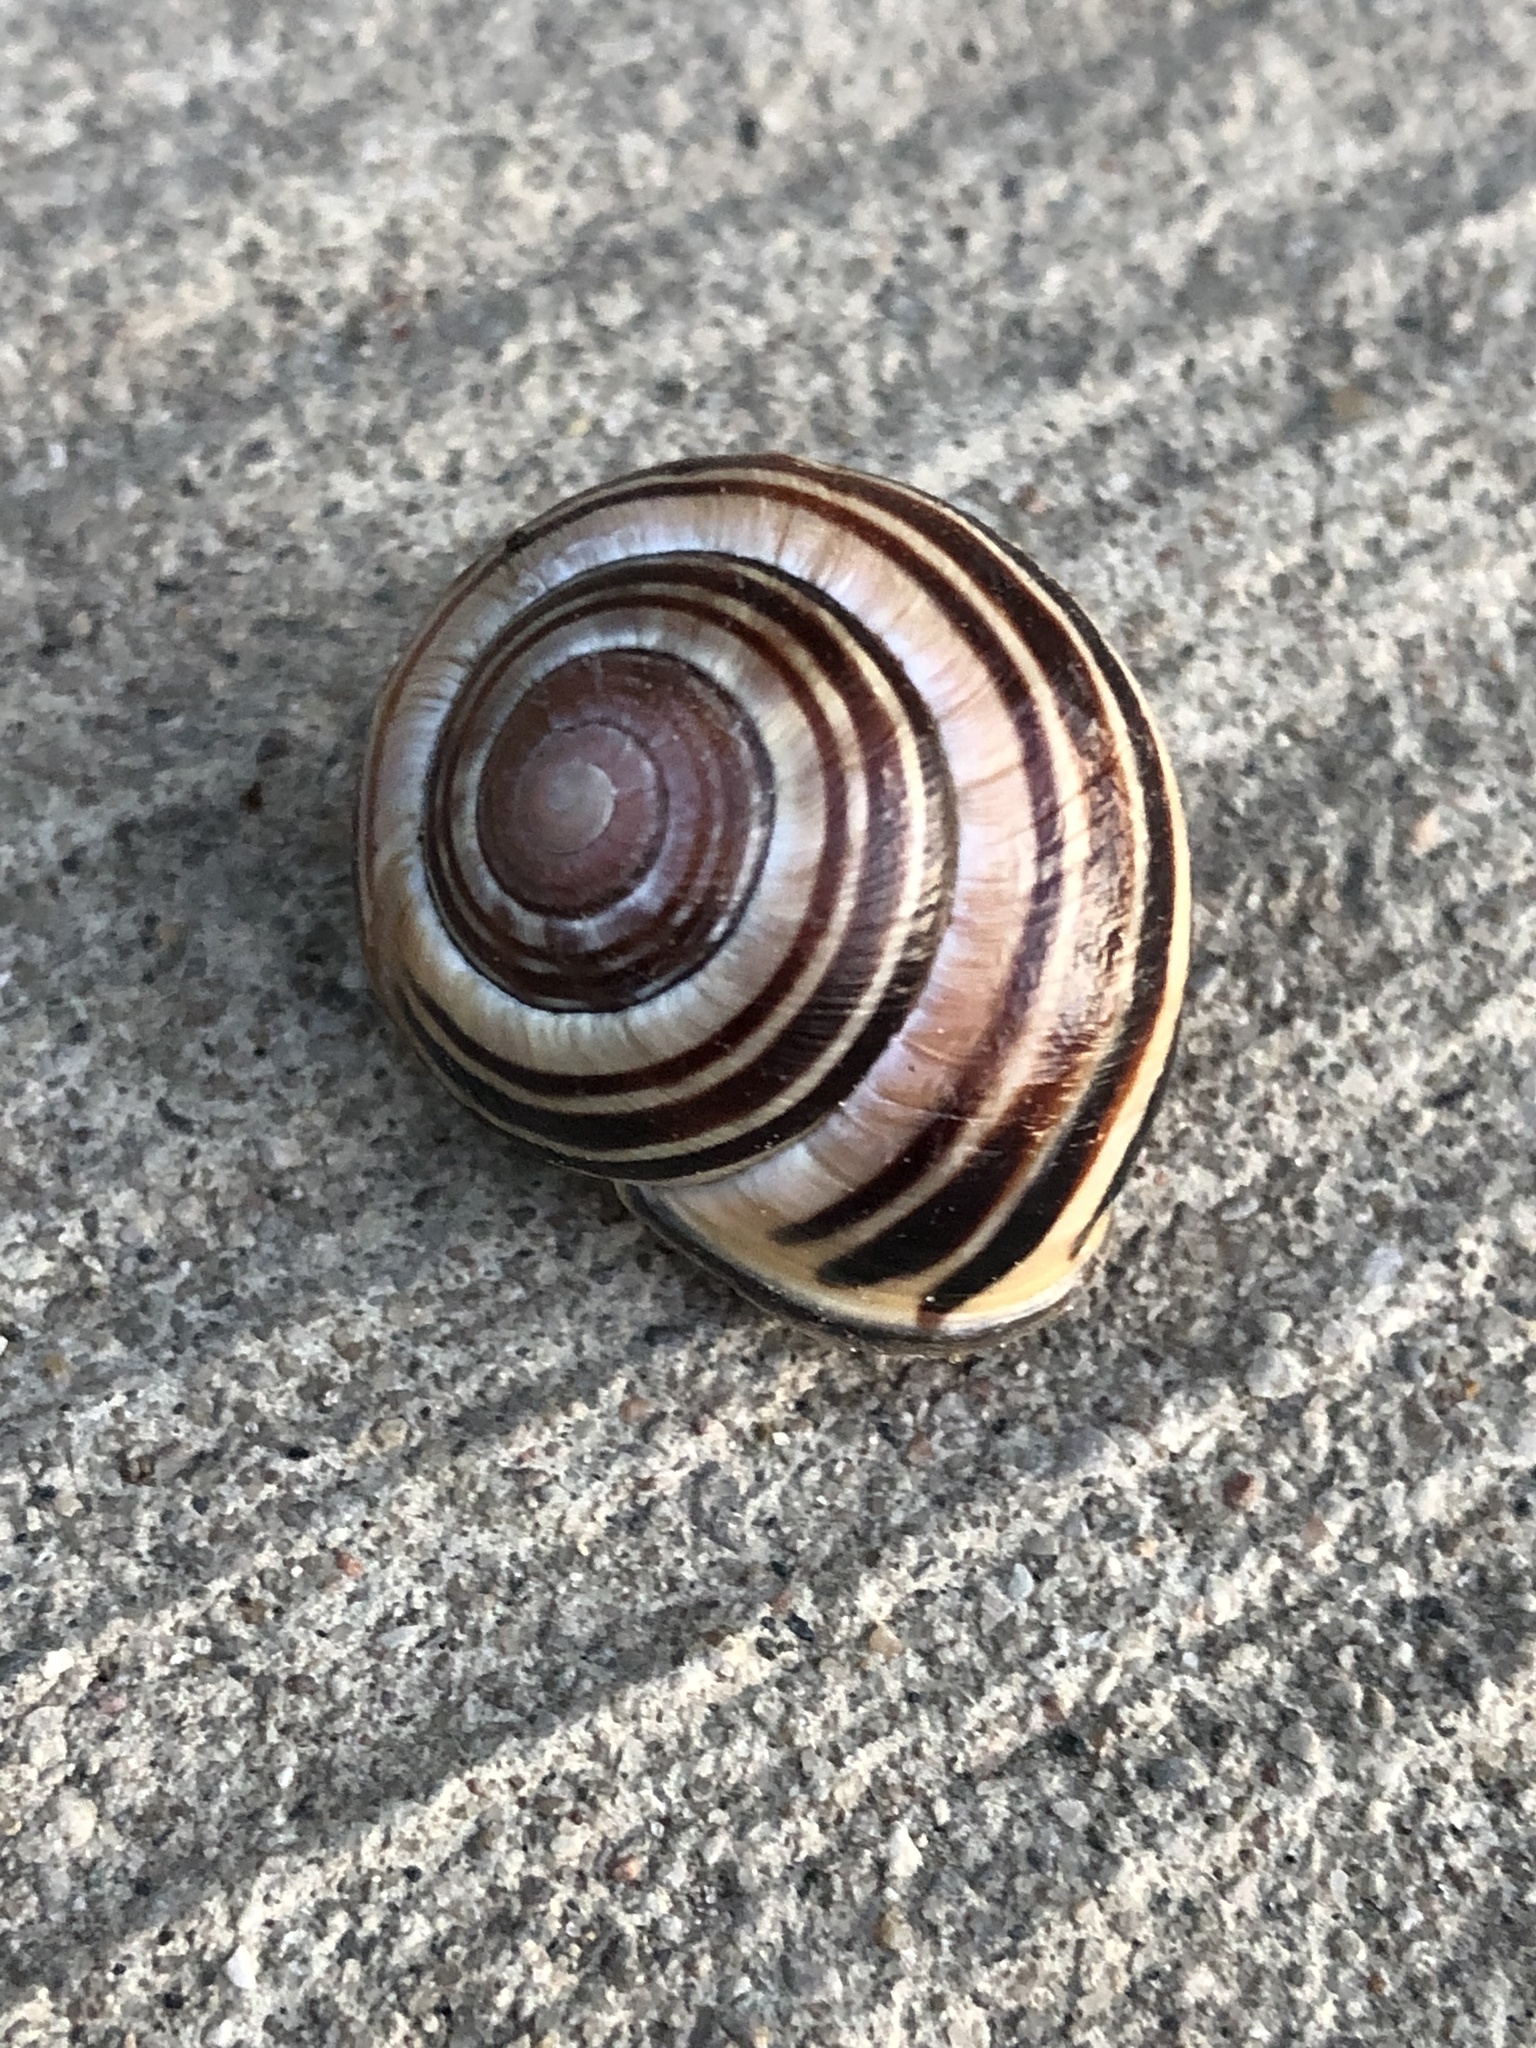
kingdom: Animalia
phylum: Mollusca
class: Gastropoda
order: Stylommatophora
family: Helicidae
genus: Cepaea
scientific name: Cepaea nemoralis
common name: Grovesnail
